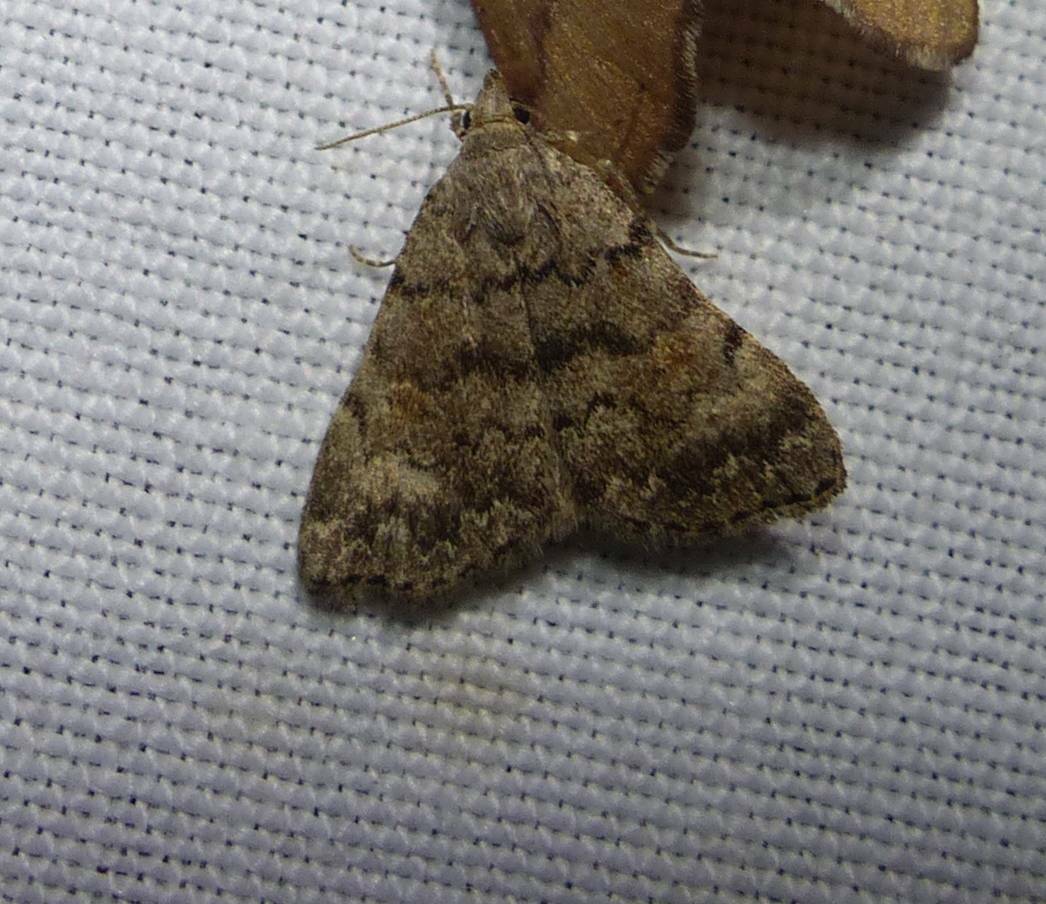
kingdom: Animalia
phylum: Arthropoda
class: Insecta
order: Lepidoptera
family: Erebidae
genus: Idia
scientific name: Idia aemula
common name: Common idia moth
